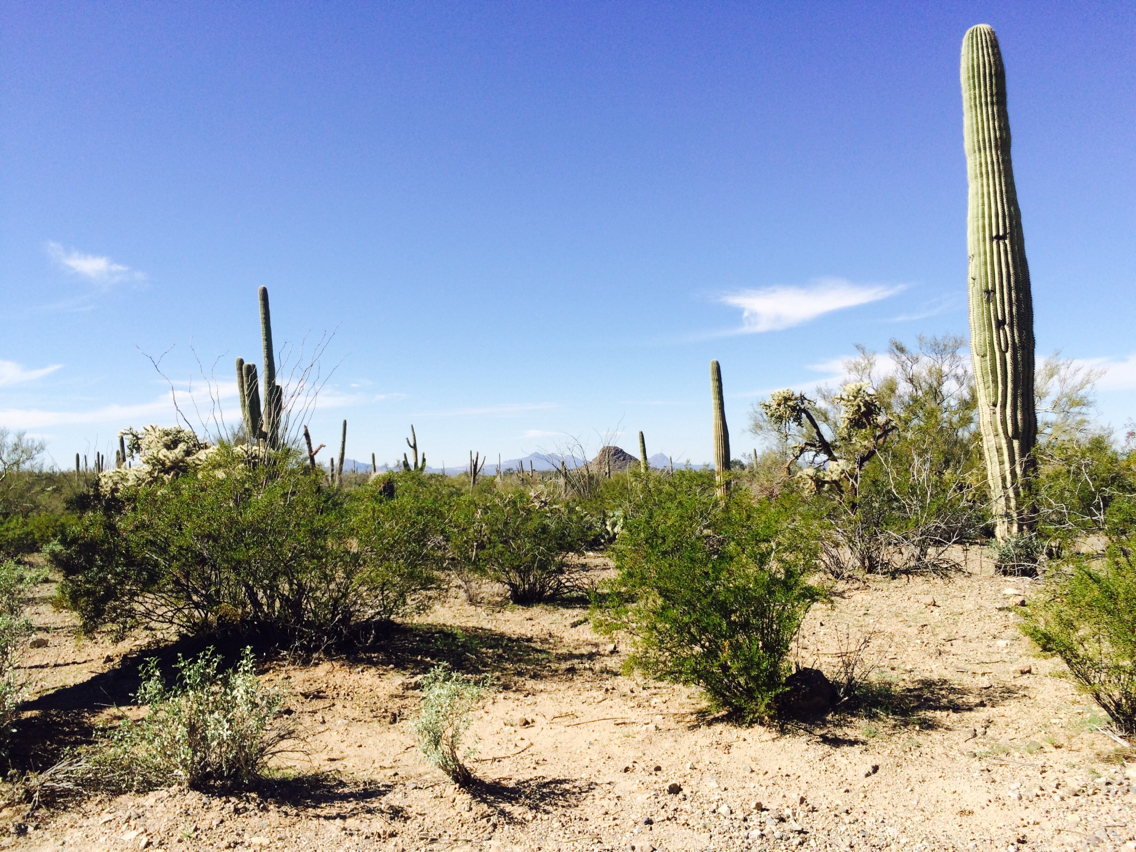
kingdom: Plantae
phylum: Tracheophyta
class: Magnoliopsida
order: Caryophyllales
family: Cactaceae
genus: Carnegiea
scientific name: Carnegiea gigantea
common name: Saguaro
